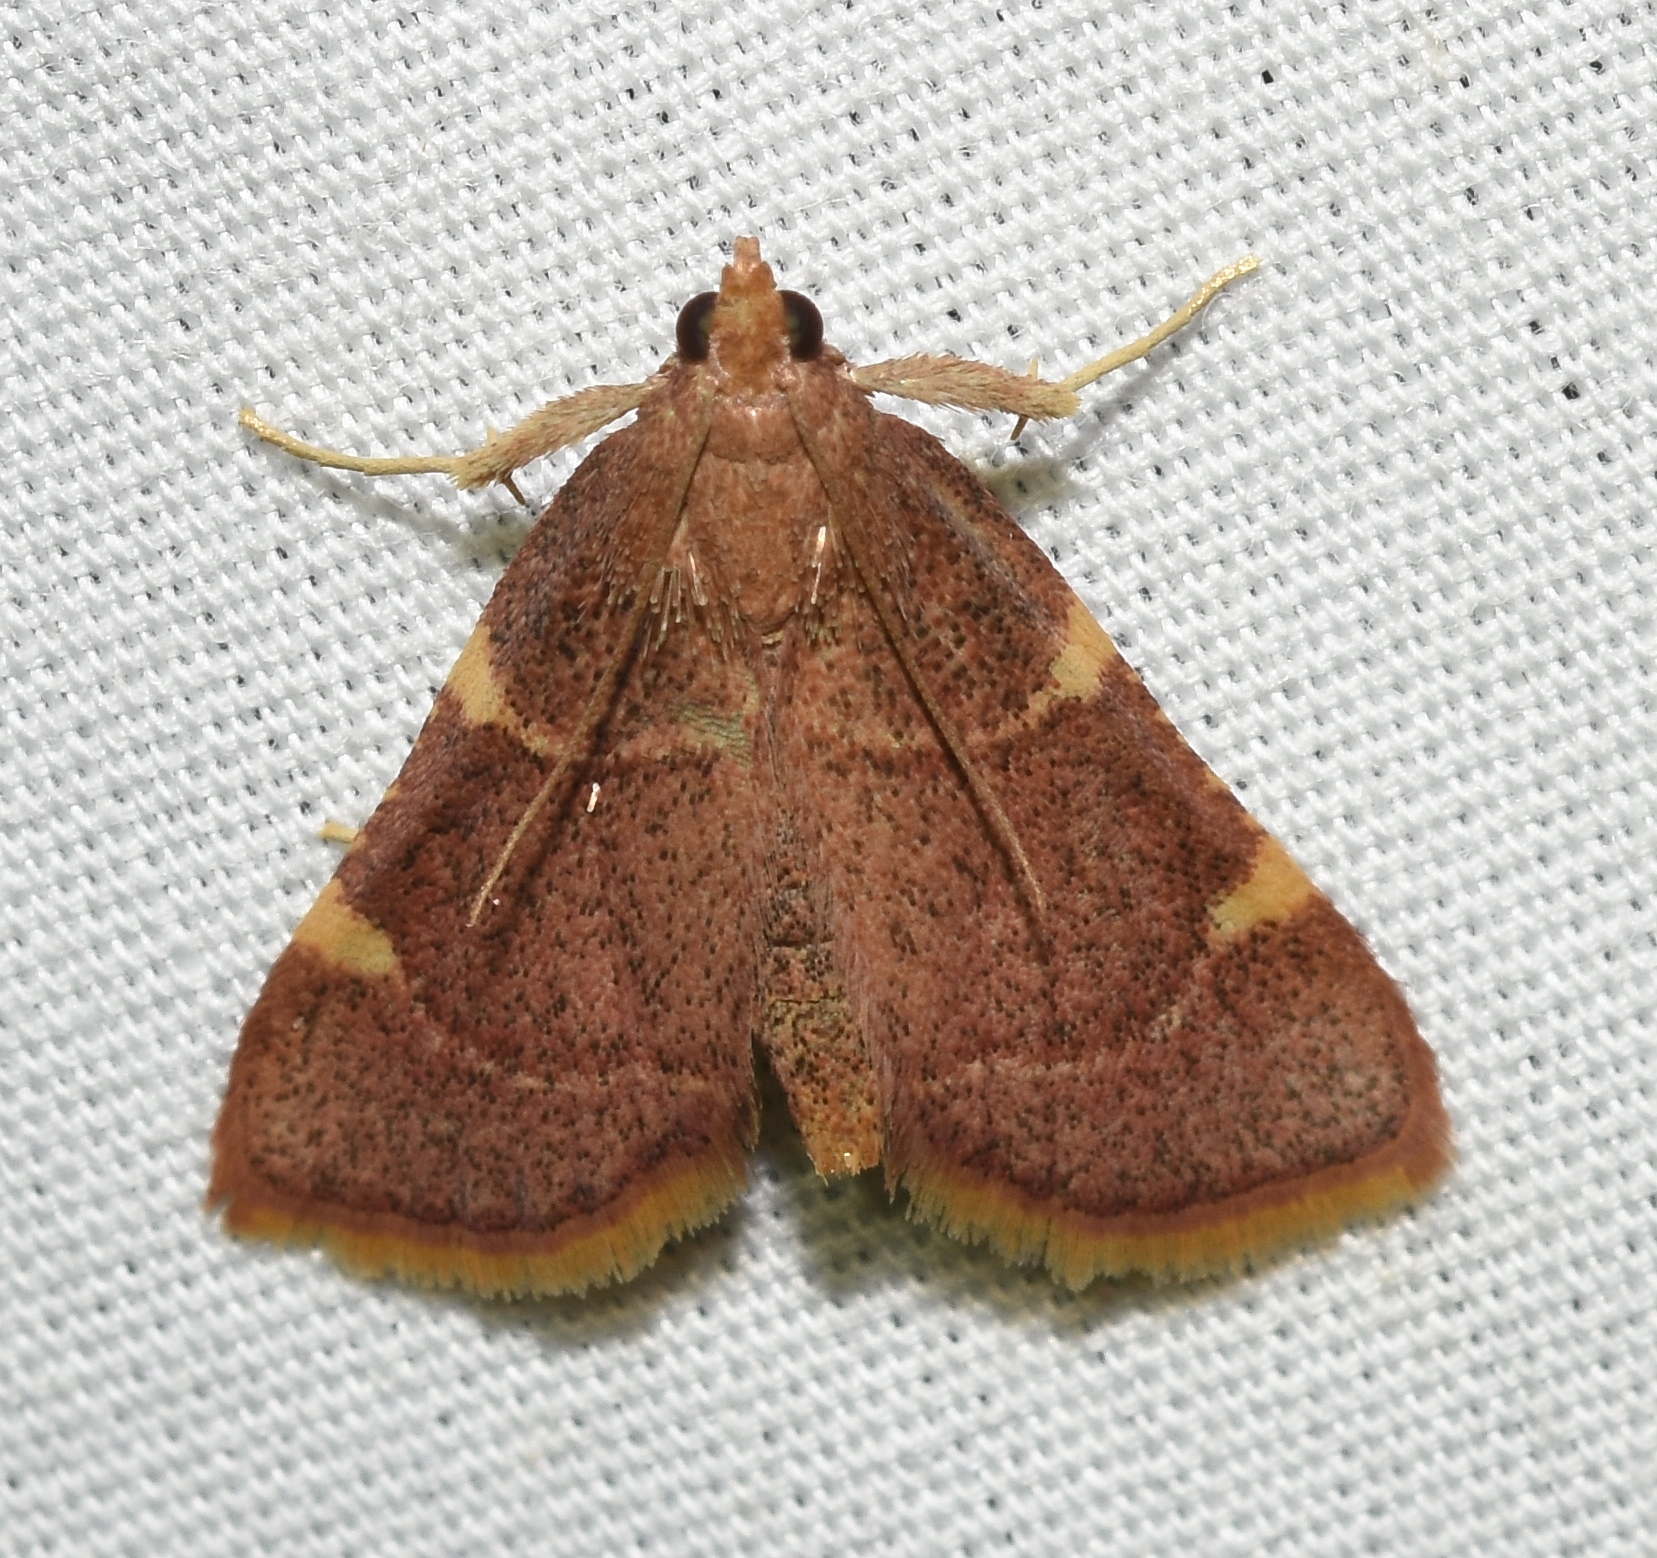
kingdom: Animalia
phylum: Arthropoda
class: Insecta
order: Lepidoptera
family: Pyralidae
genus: Hypsopygia
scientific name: Hypsopygia olinalis
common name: Yellow-fringed dolichomia moth
